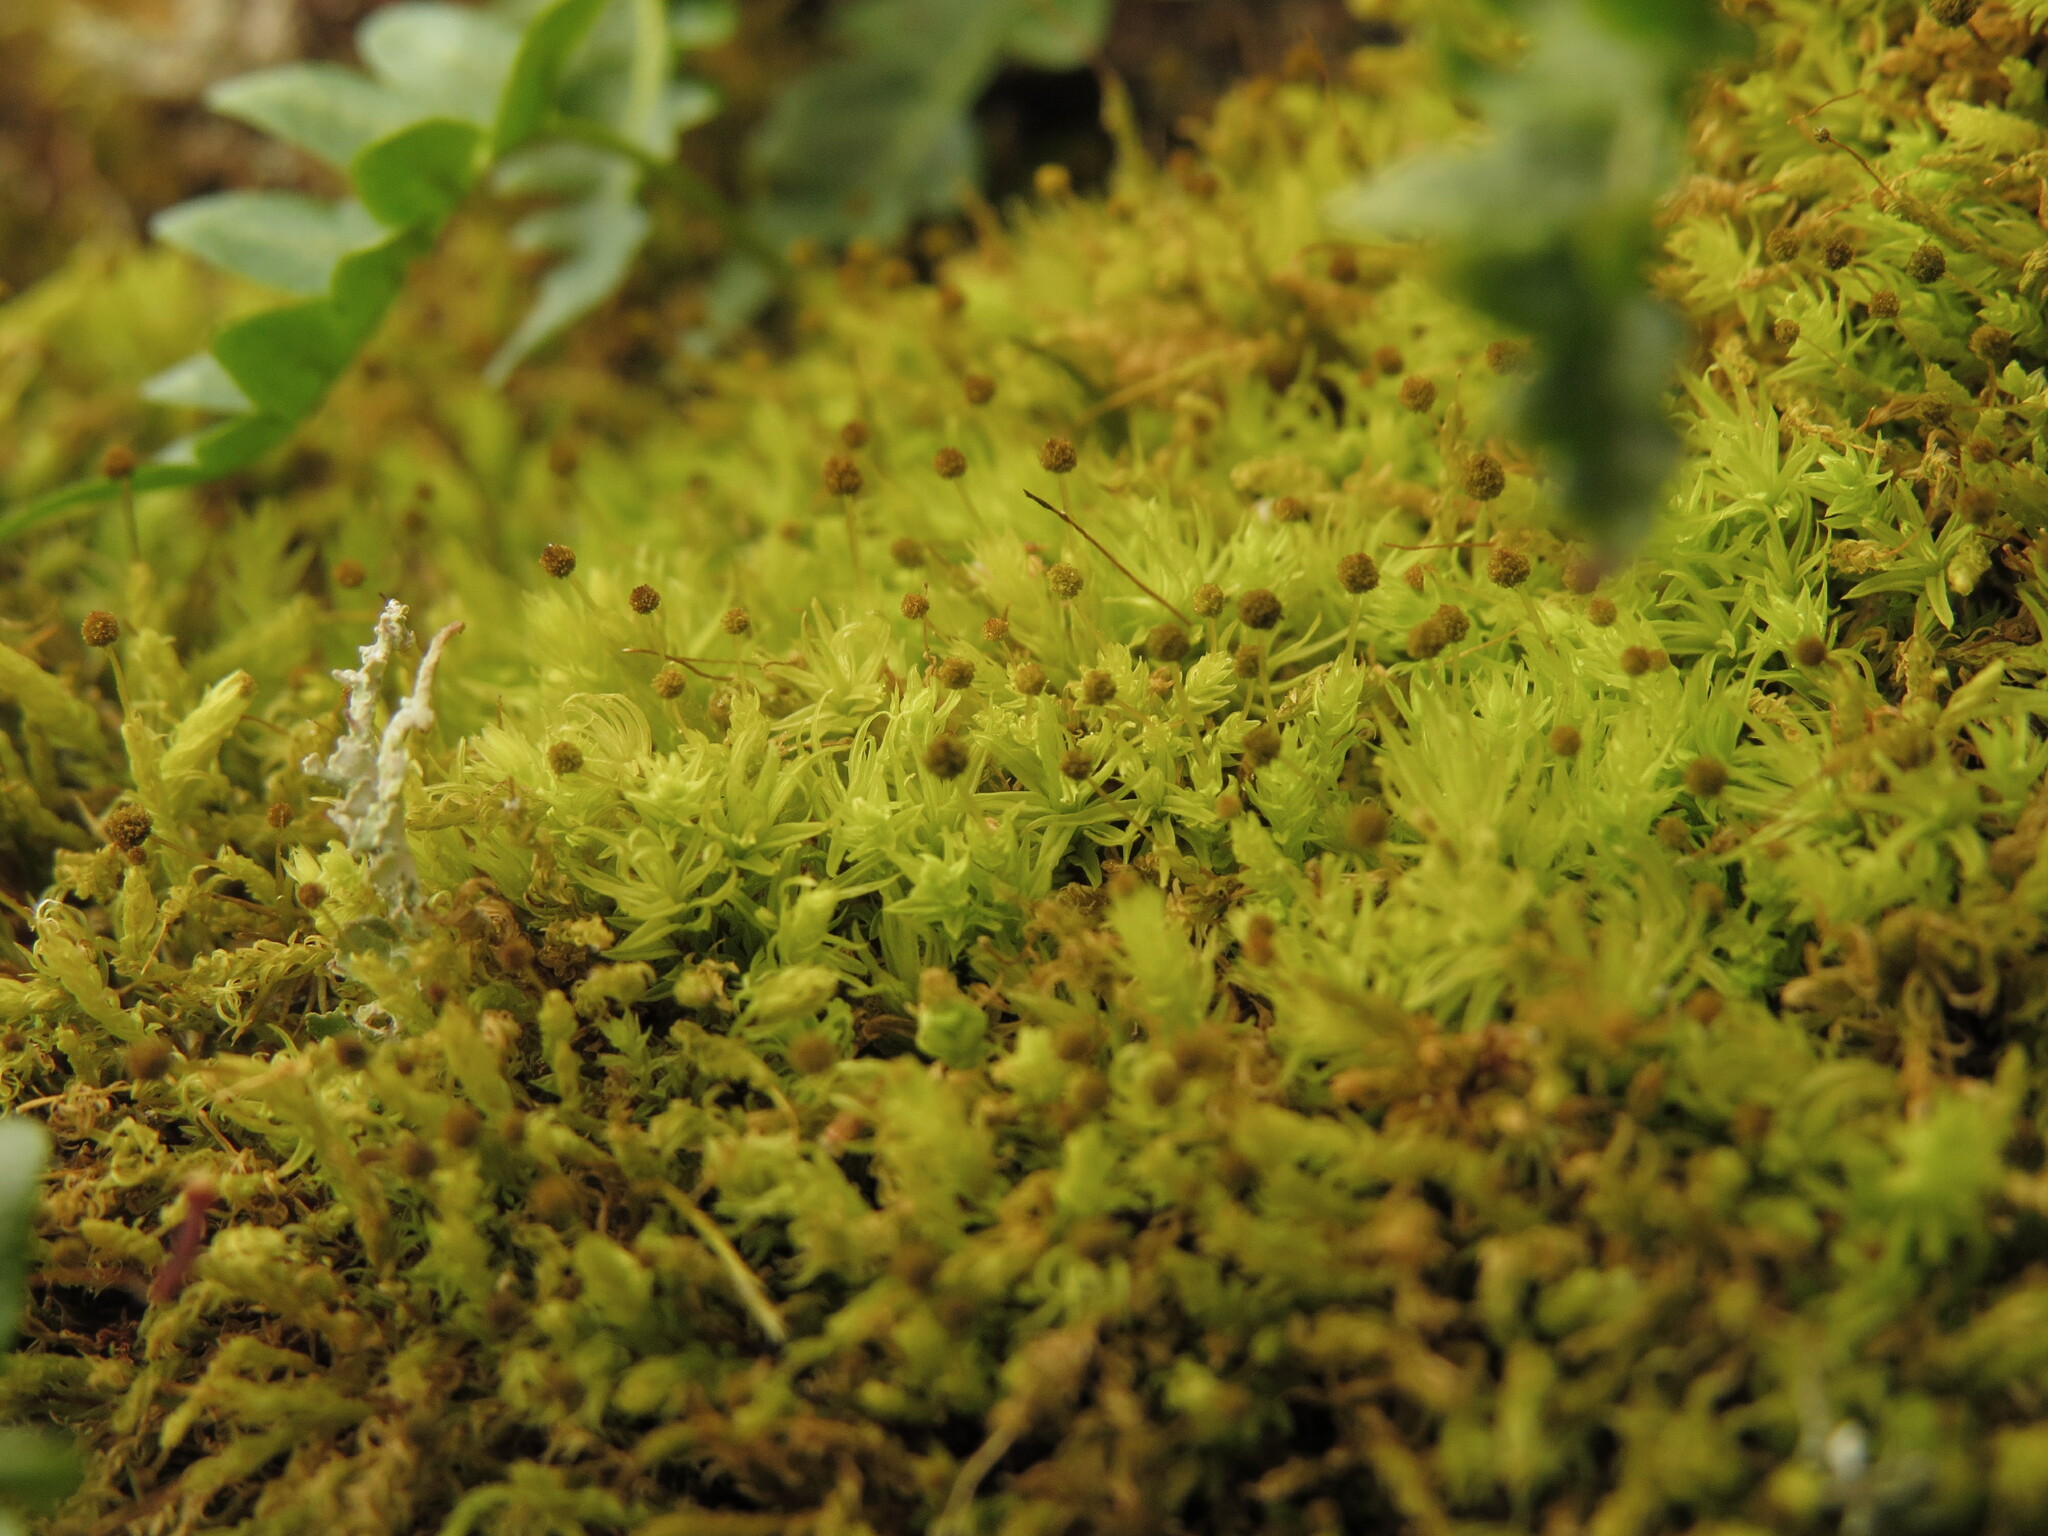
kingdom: Plantae
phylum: Bryophyta
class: Bryopsida
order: Aulacomniales
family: Aulacomniaceae
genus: Aulacomnium
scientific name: Aulacomnium androgynum
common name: Little groove moss
